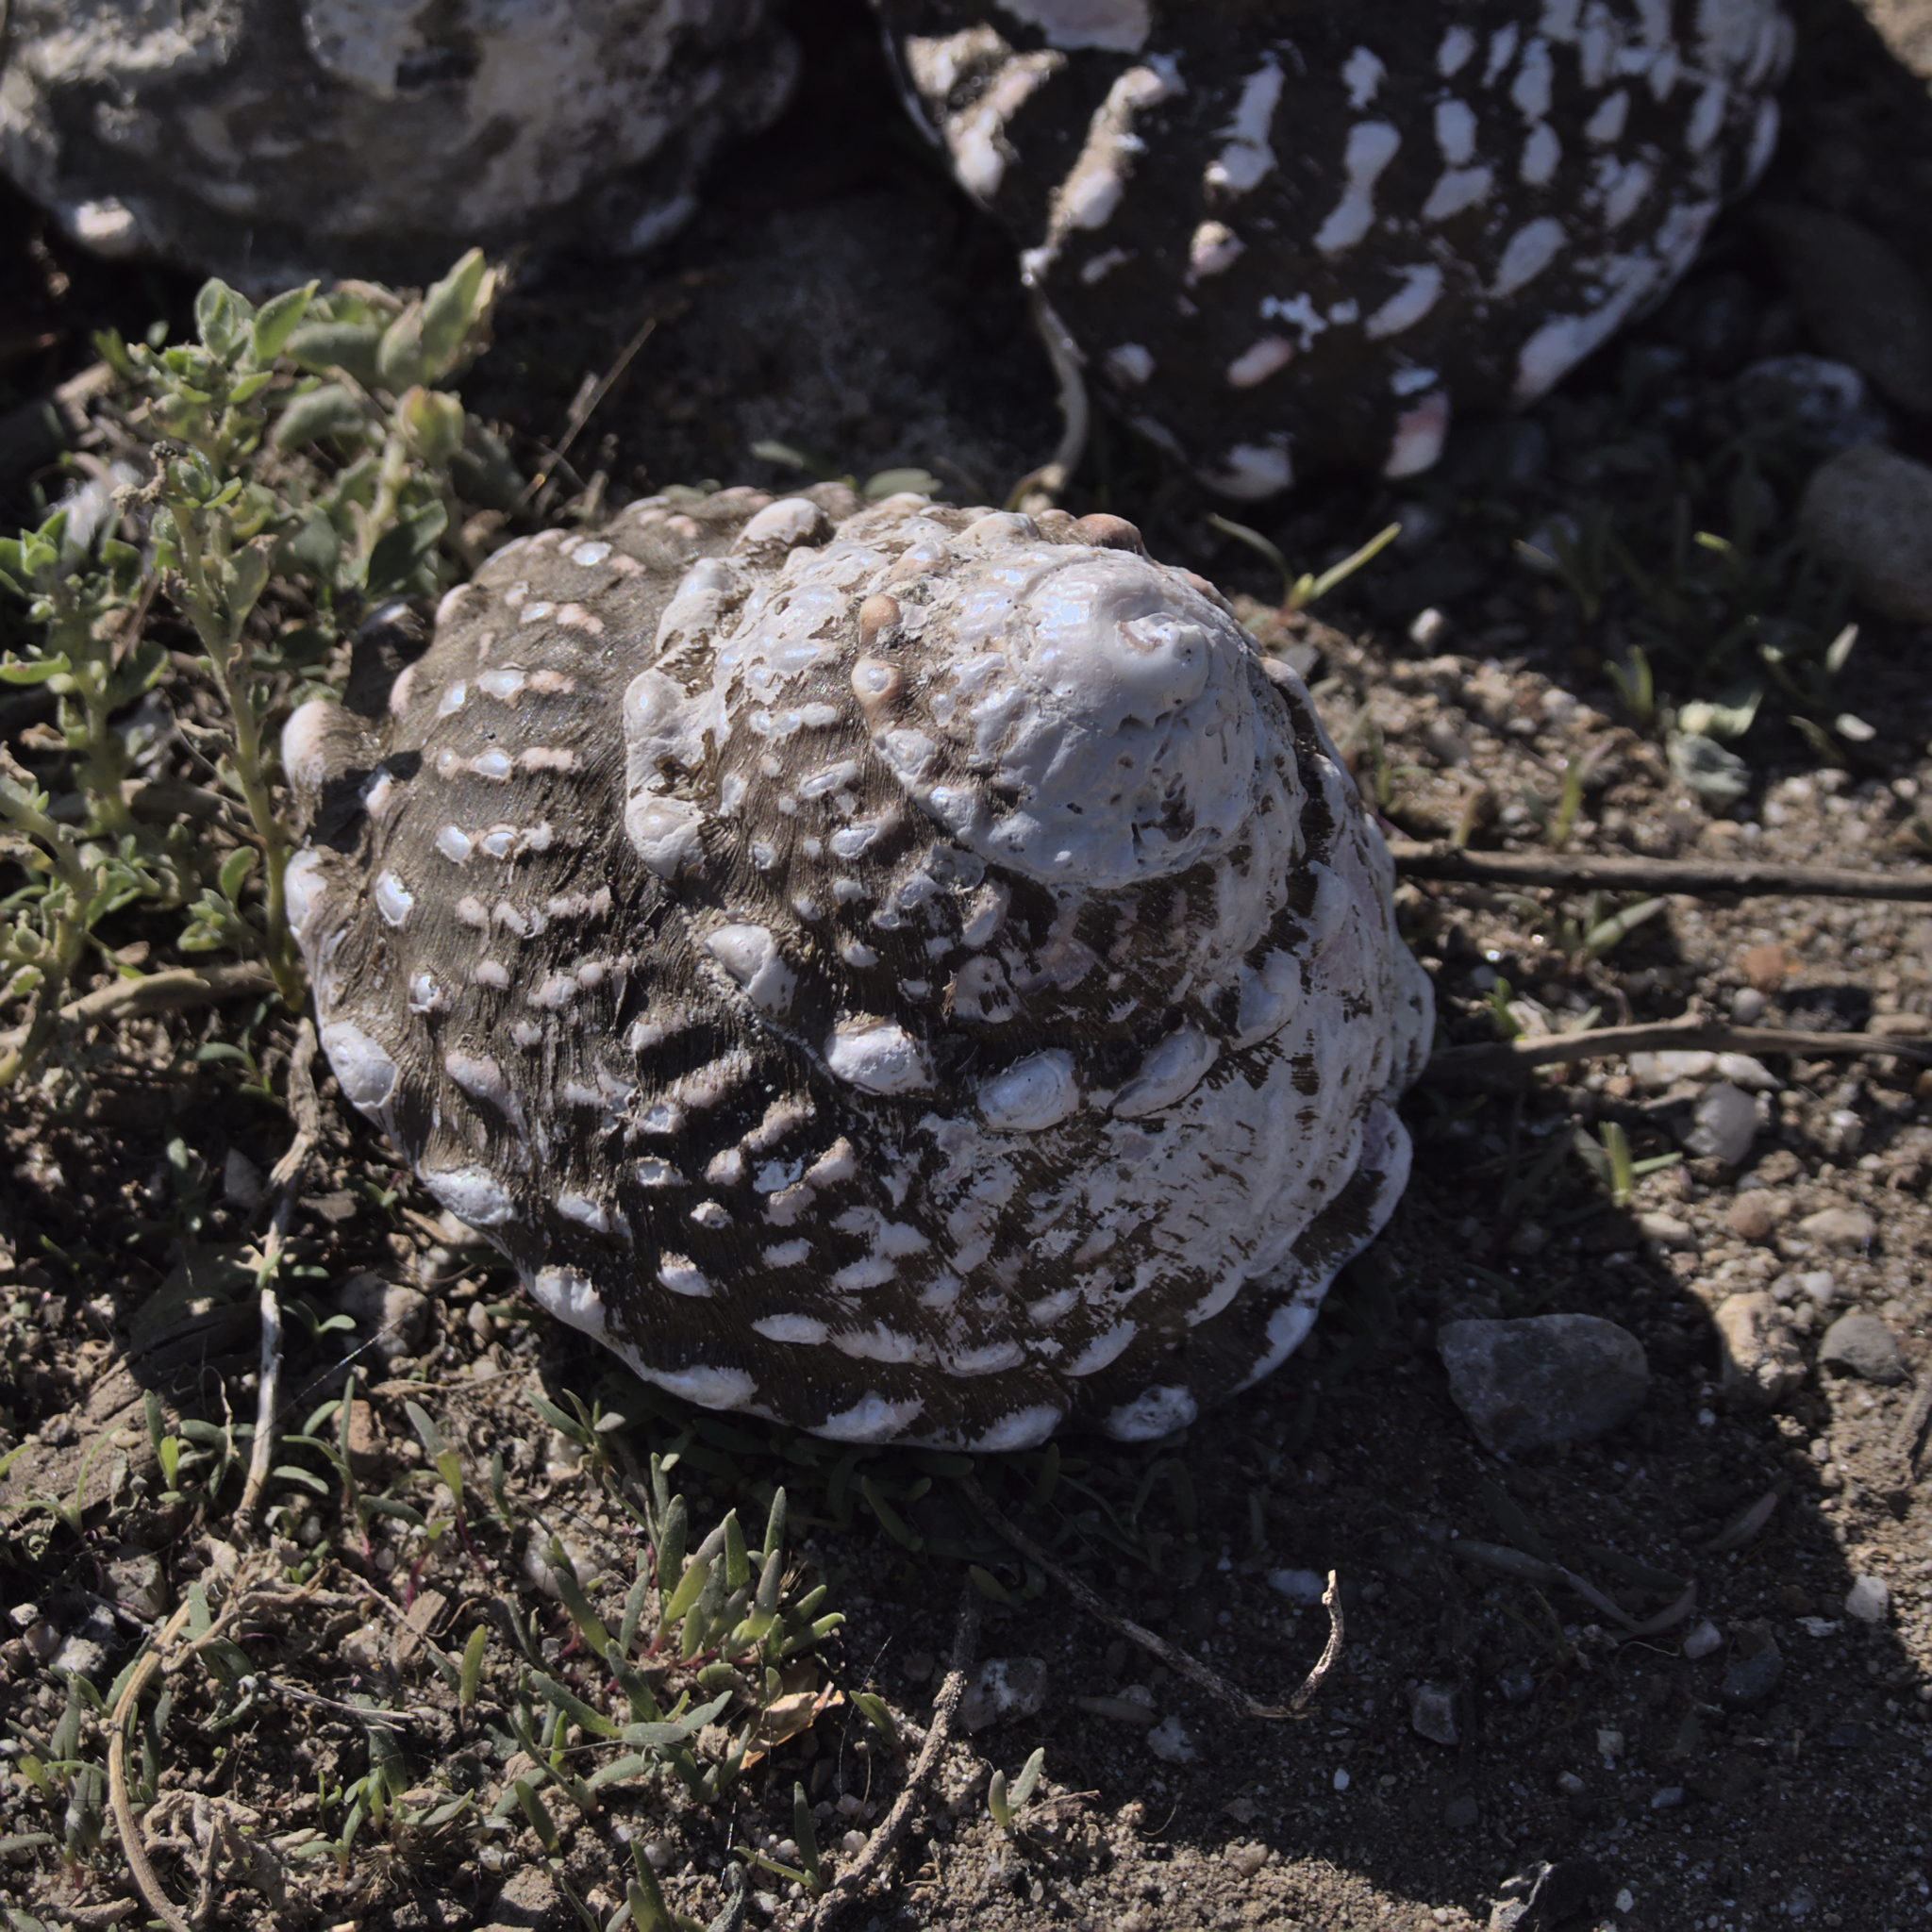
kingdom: Animalia
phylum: Mollusca
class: Gastropoda
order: Trochida
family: Turbinidae
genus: Megastraea
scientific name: Megastraea undosa
